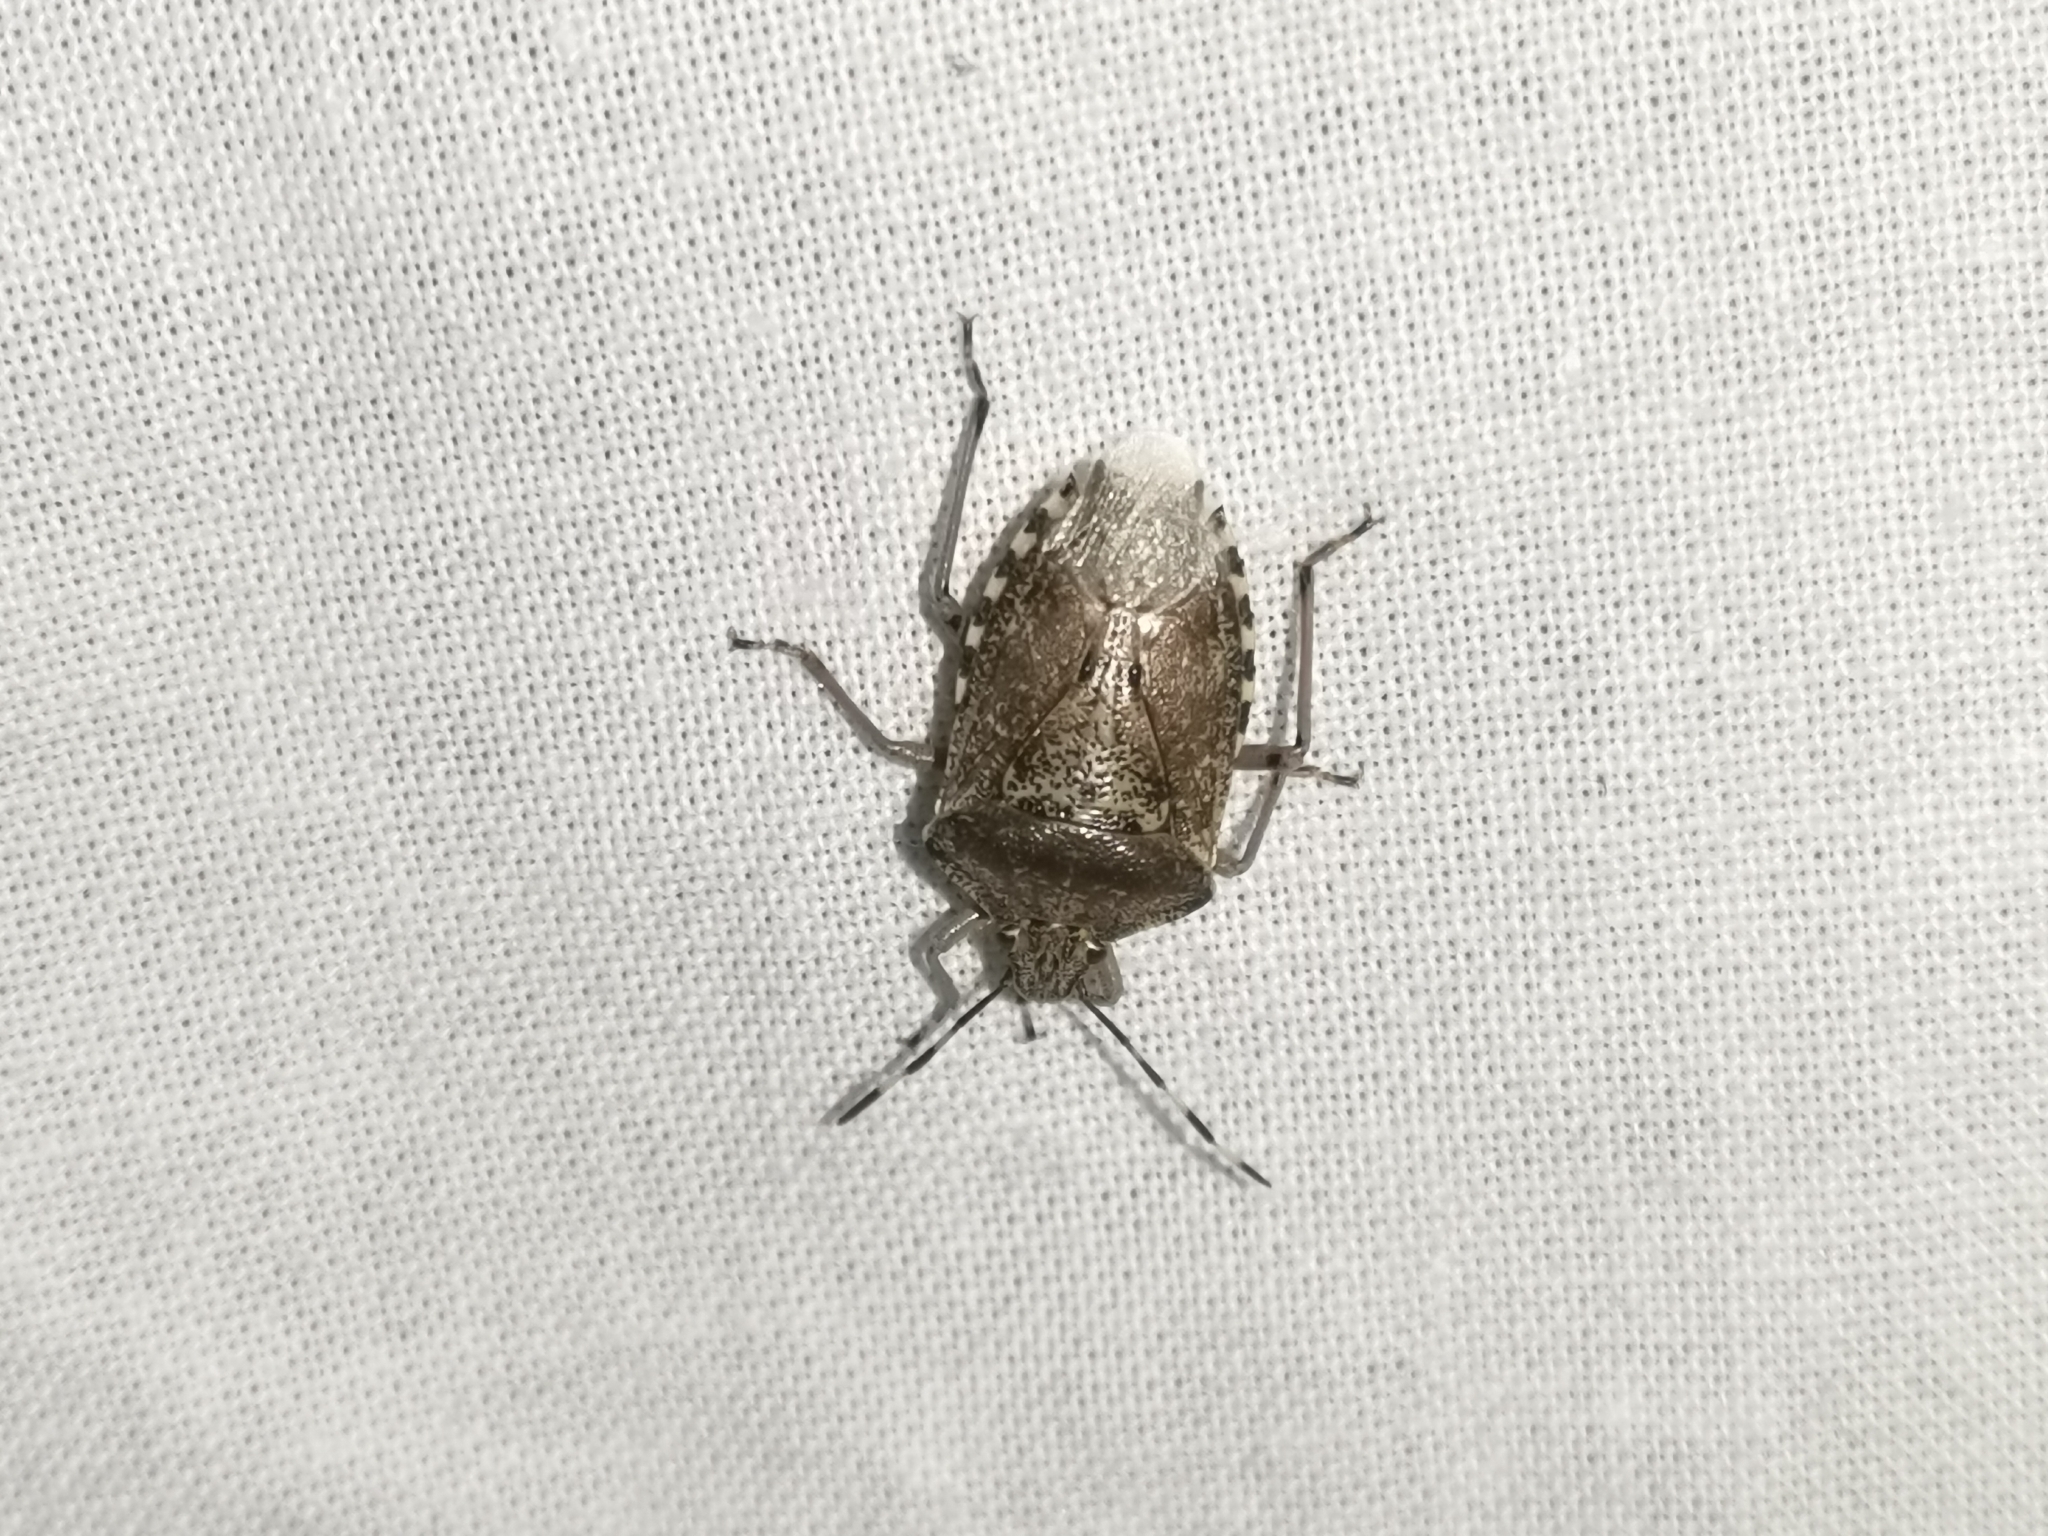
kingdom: Animalia
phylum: Arthropoda
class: Insecta
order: Hemiptera
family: Pentatomidae
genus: Rhaphigaster
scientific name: Rhaphigaster nebulosa
